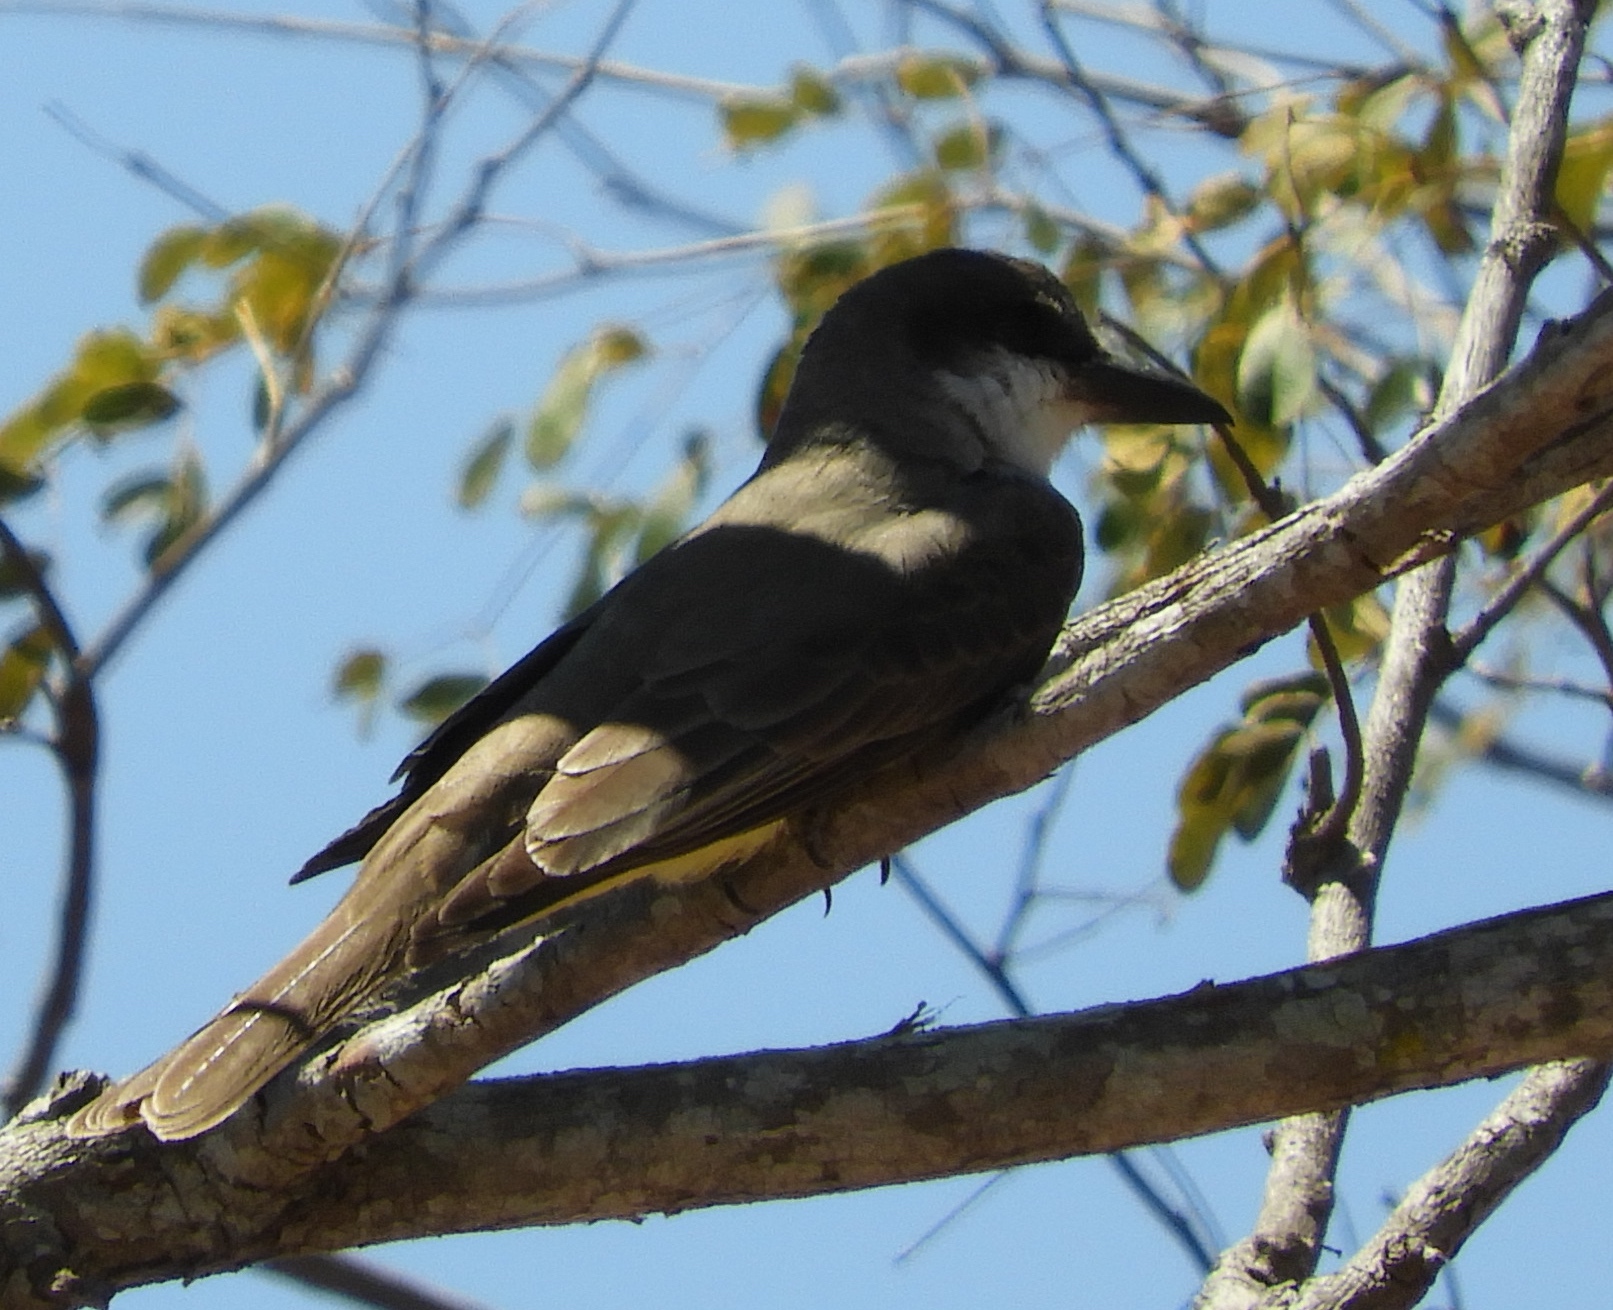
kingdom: Animalia
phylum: Chordata
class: Aves
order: Passeriformes
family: Tyrannidae
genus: Tyrannus
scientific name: Tyrannus crassirostris
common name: Thick-billed kingbird
